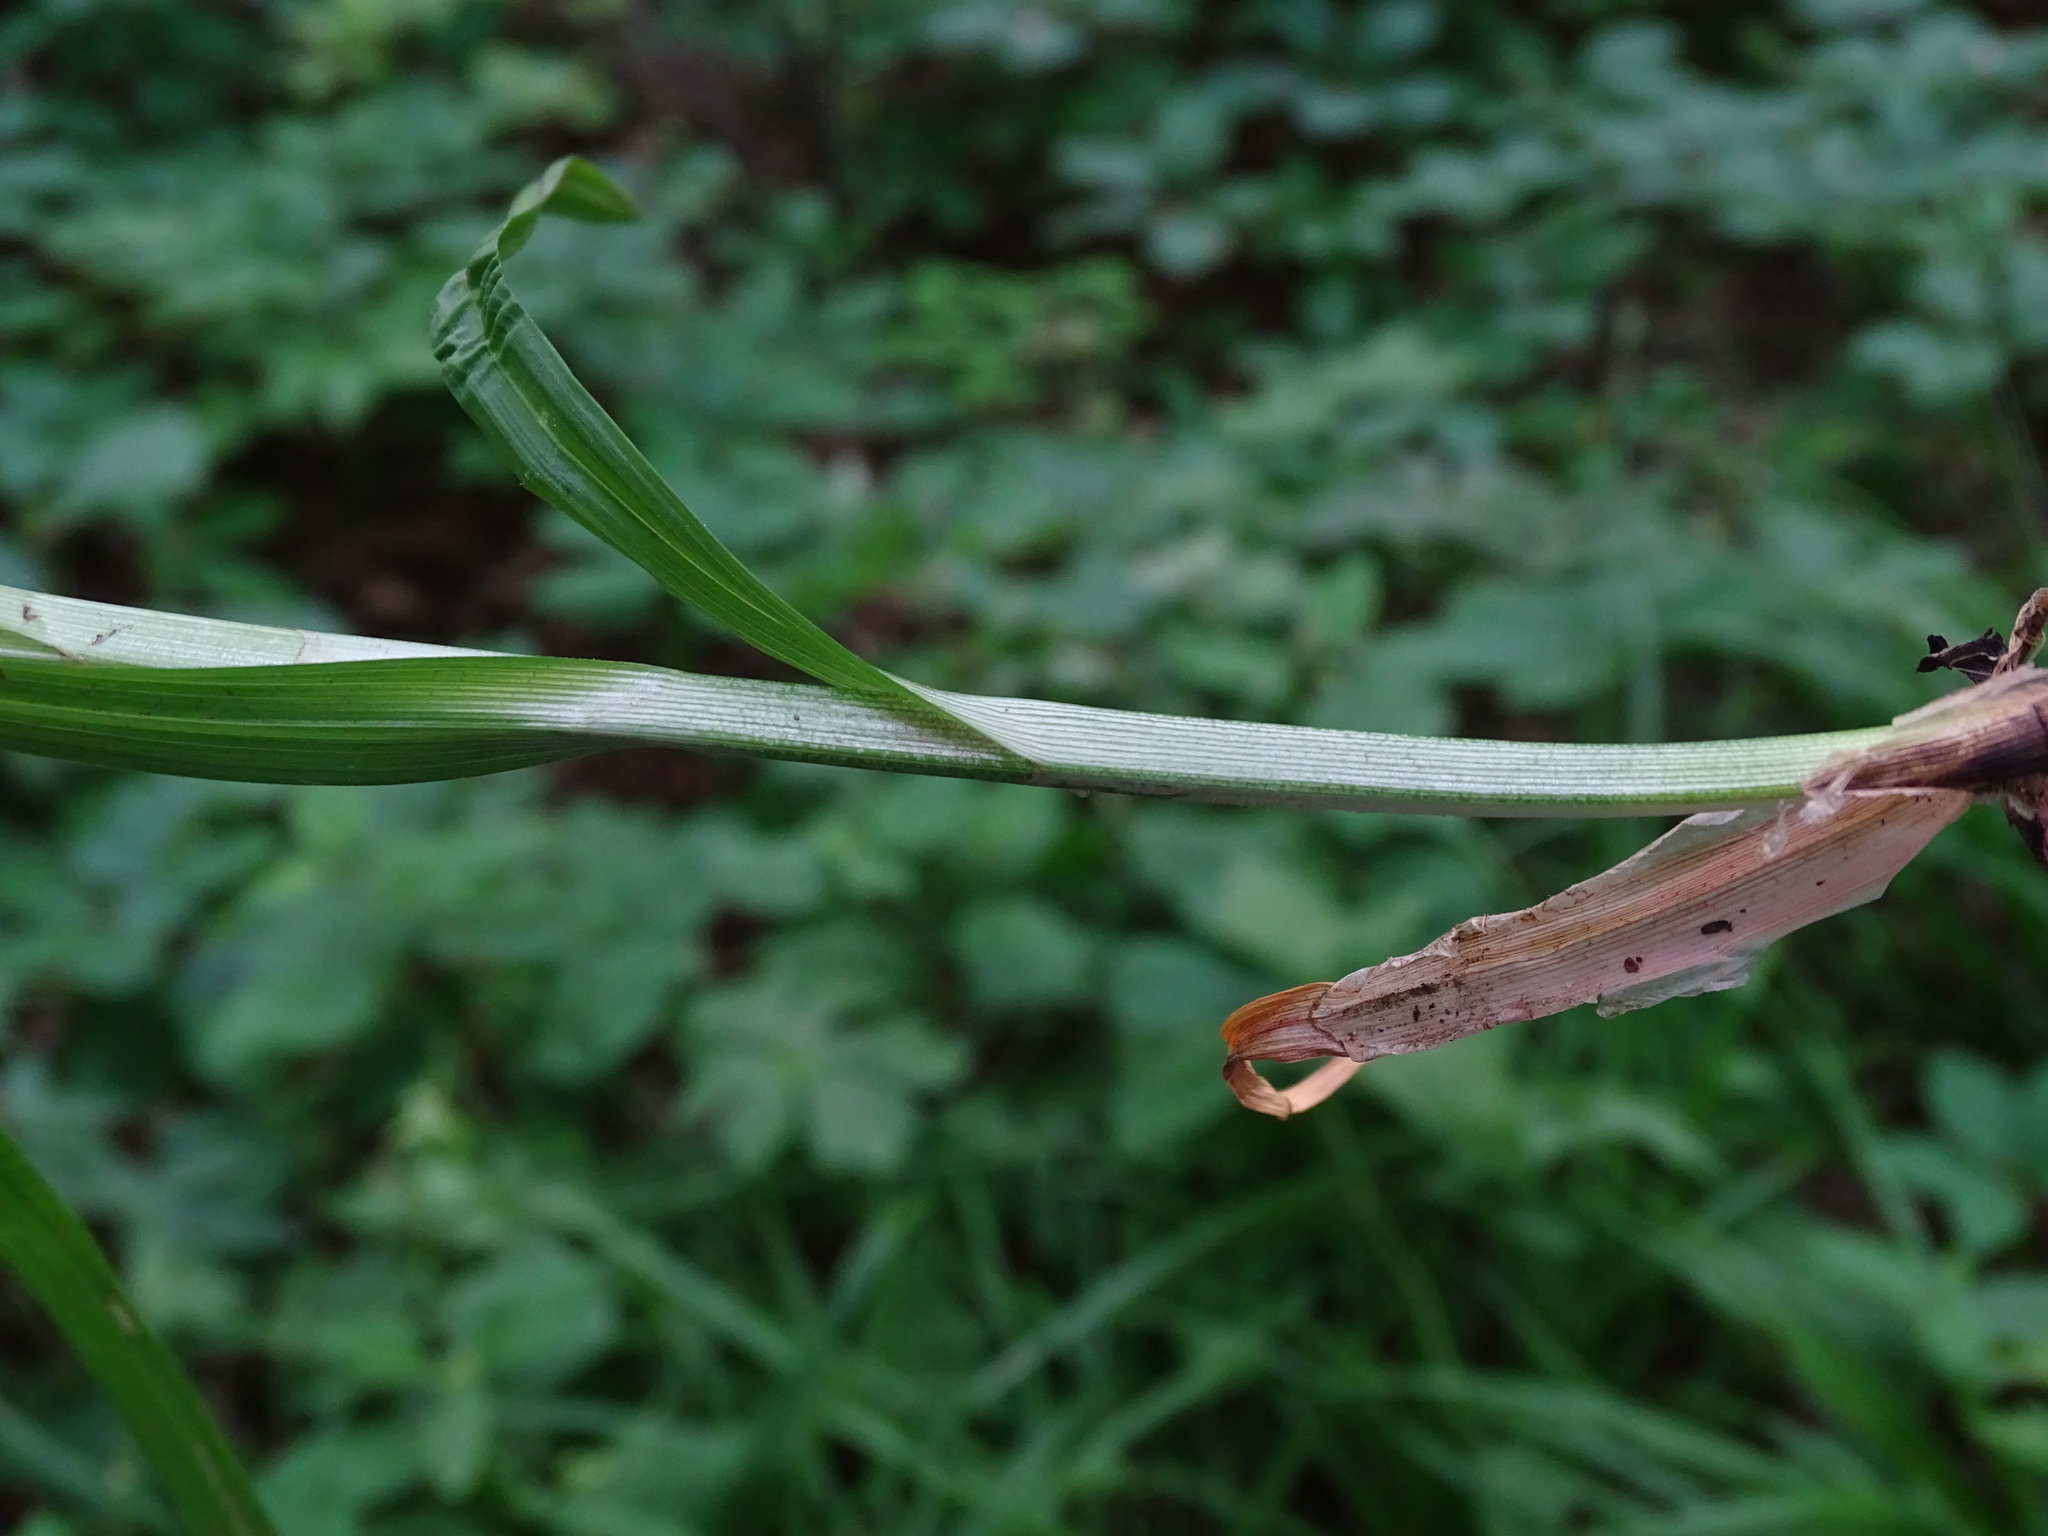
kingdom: Plantae
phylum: Tracheophyta
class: Liliopsida
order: Poales
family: Cyperaceae
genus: Carex
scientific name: Carex sparganioides
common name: Burreed sedge
